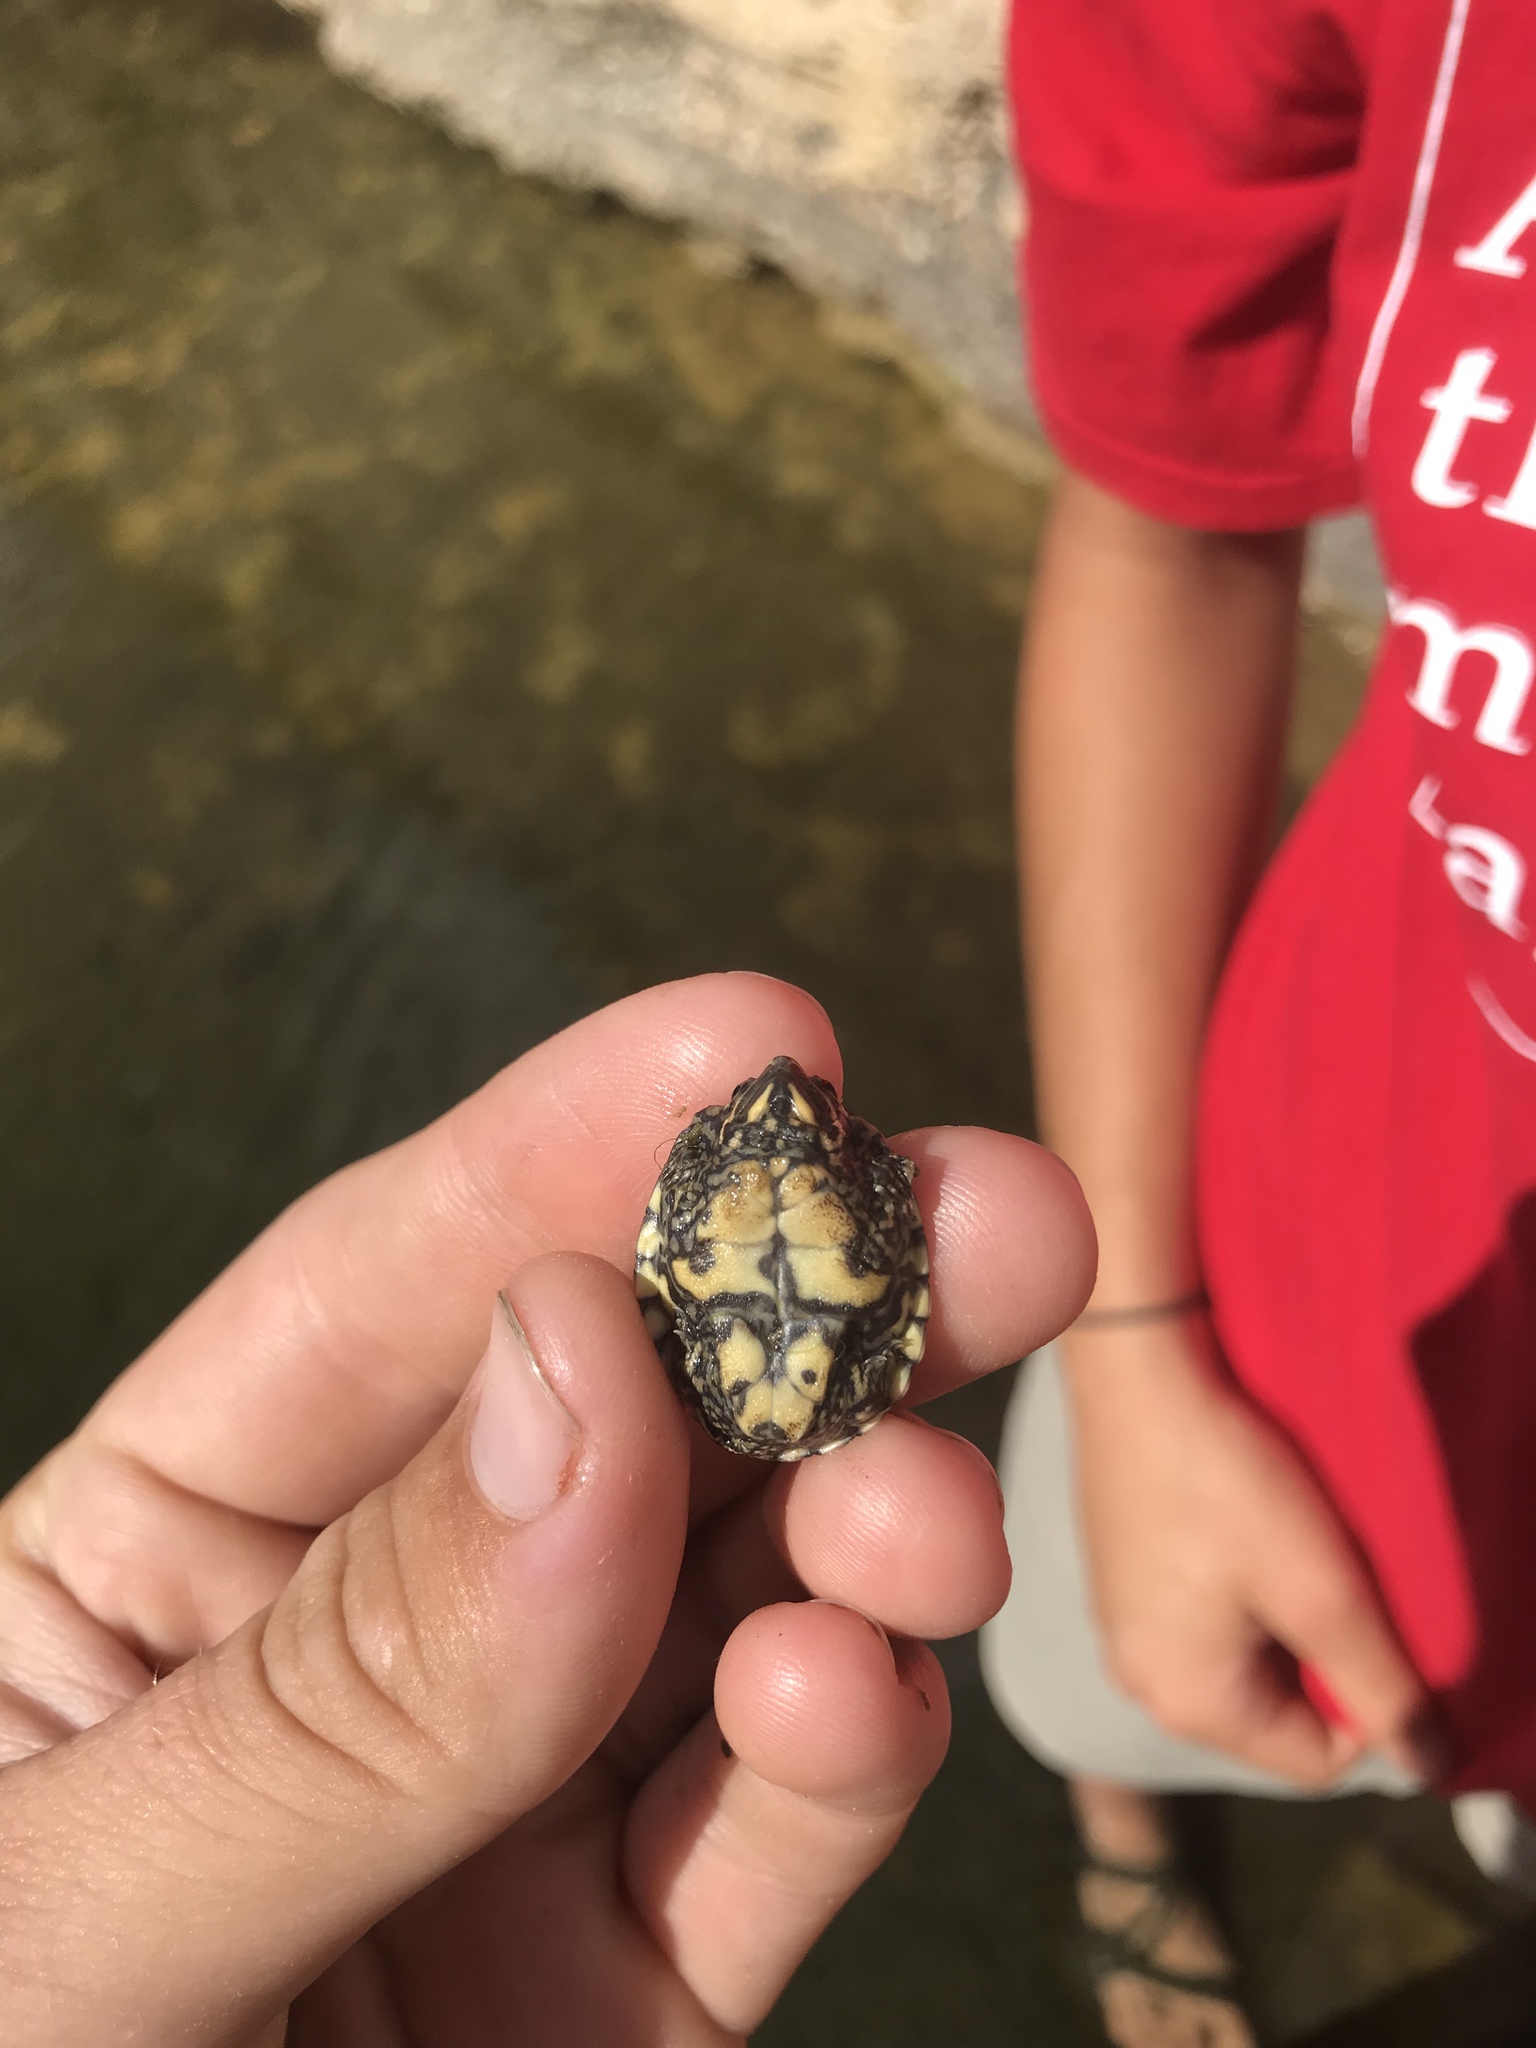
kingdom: Animalia
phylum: Chordata
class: Testudines
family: Kinosternidae
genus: Sternotherus
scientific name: Sternotherus odoratus
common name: Common musk turtle
